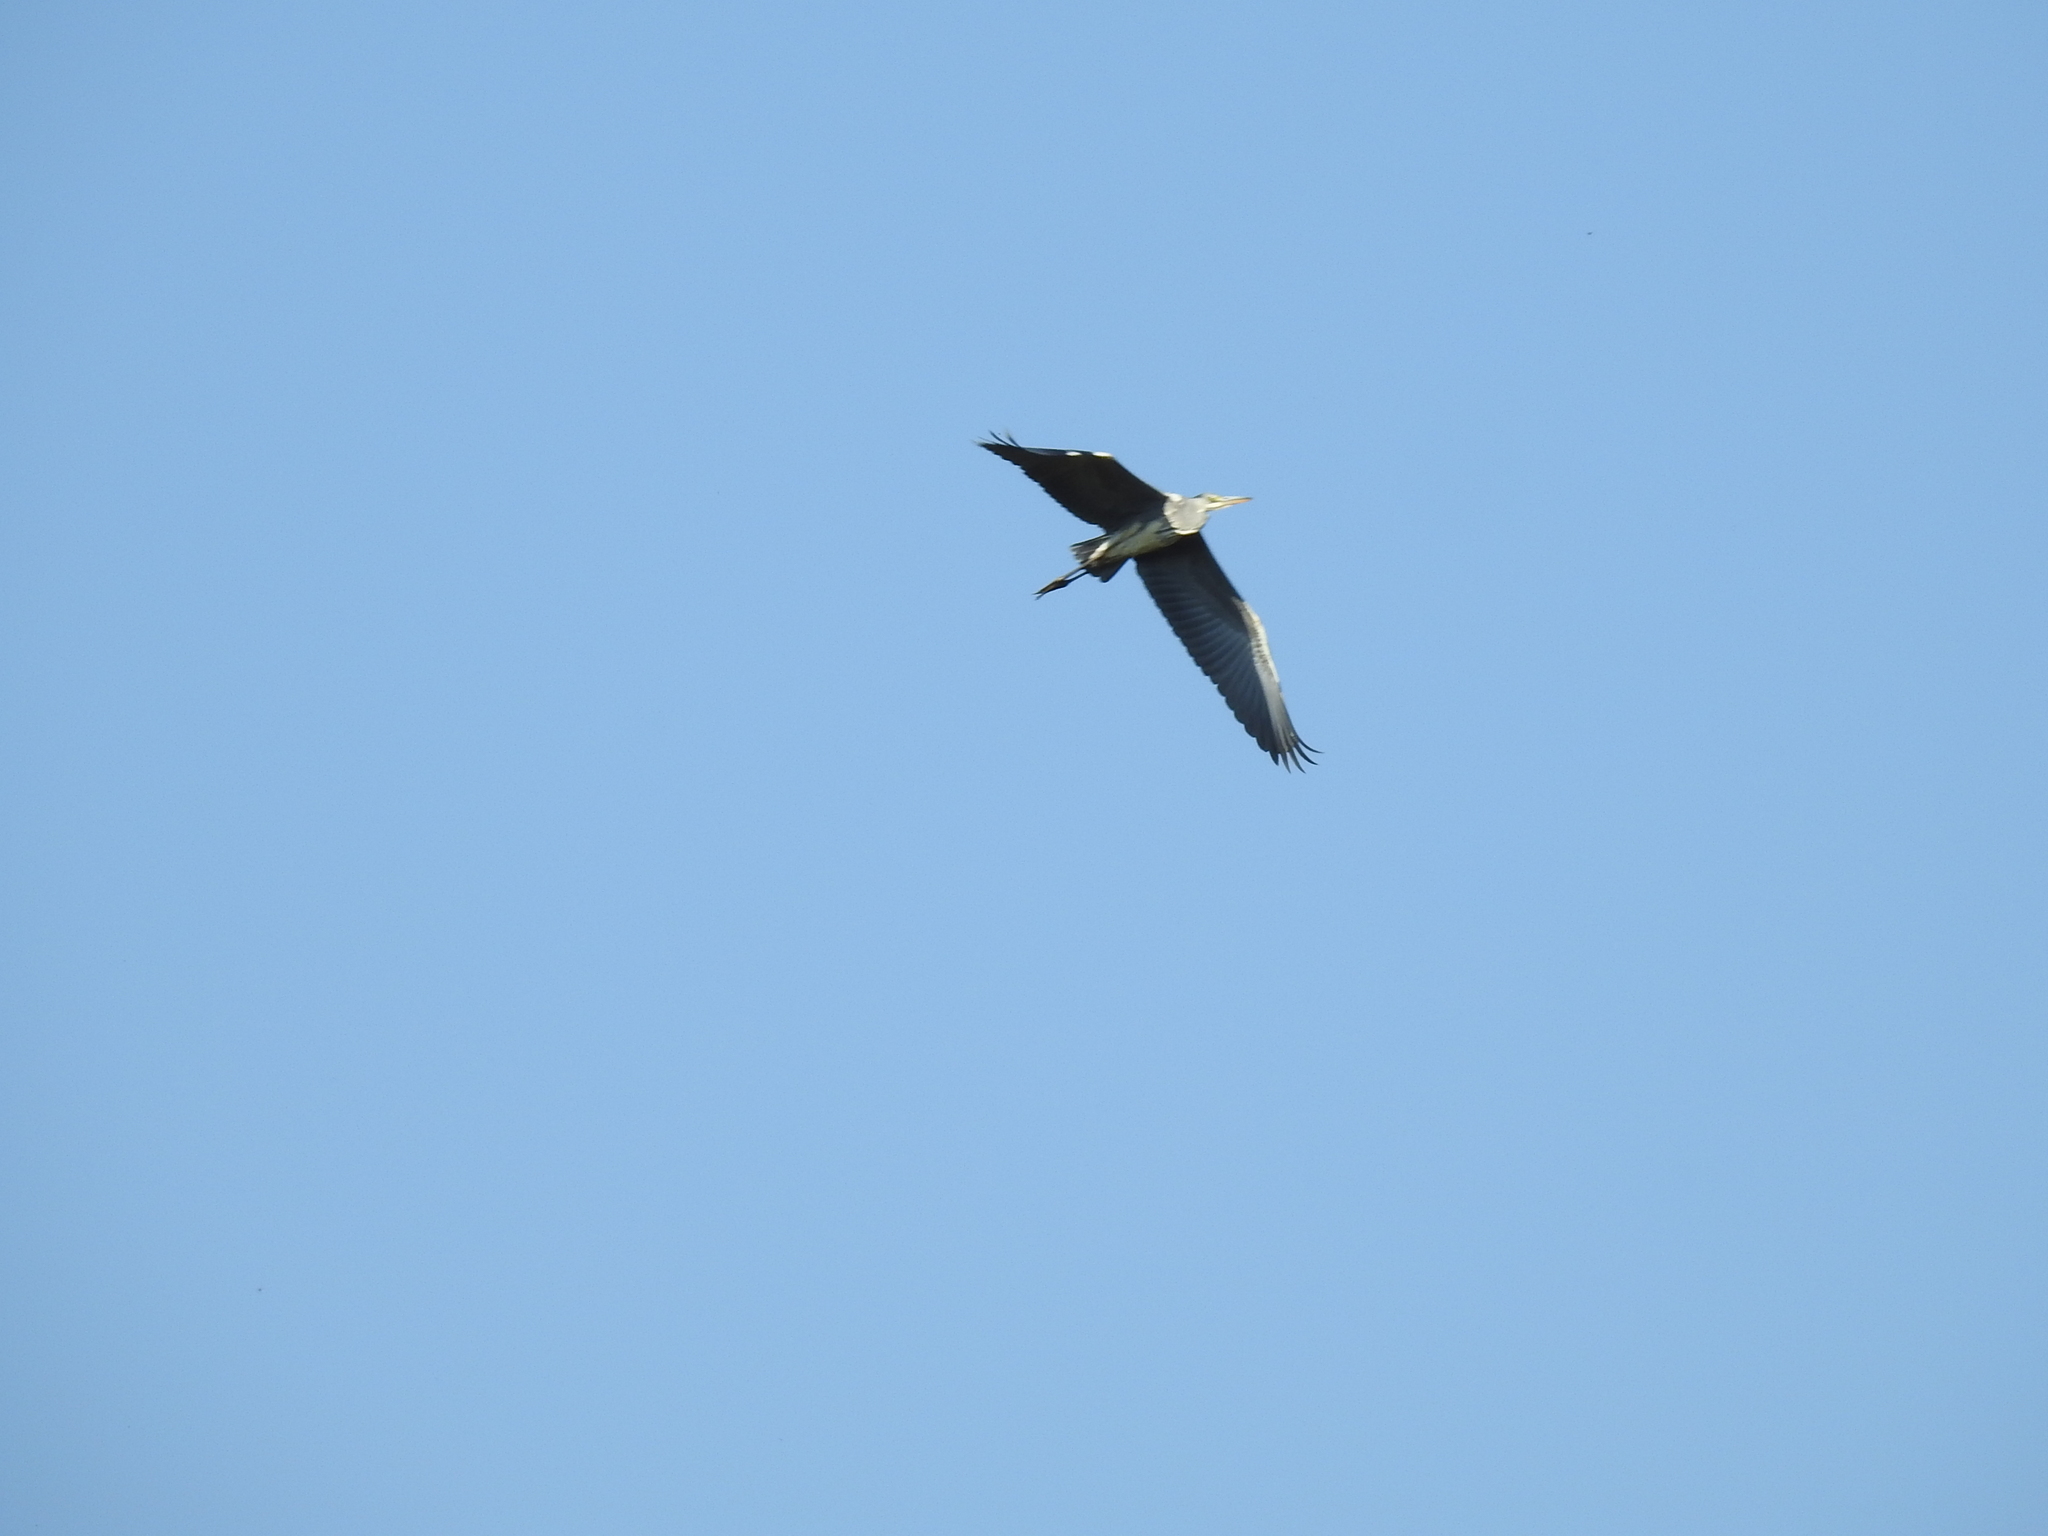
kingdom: Animalia
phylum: Chordata
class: Aves
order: Pelecaniformes
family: Ardeidae
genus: Ardea
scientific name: Ardea cinerea
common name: Grey heron
